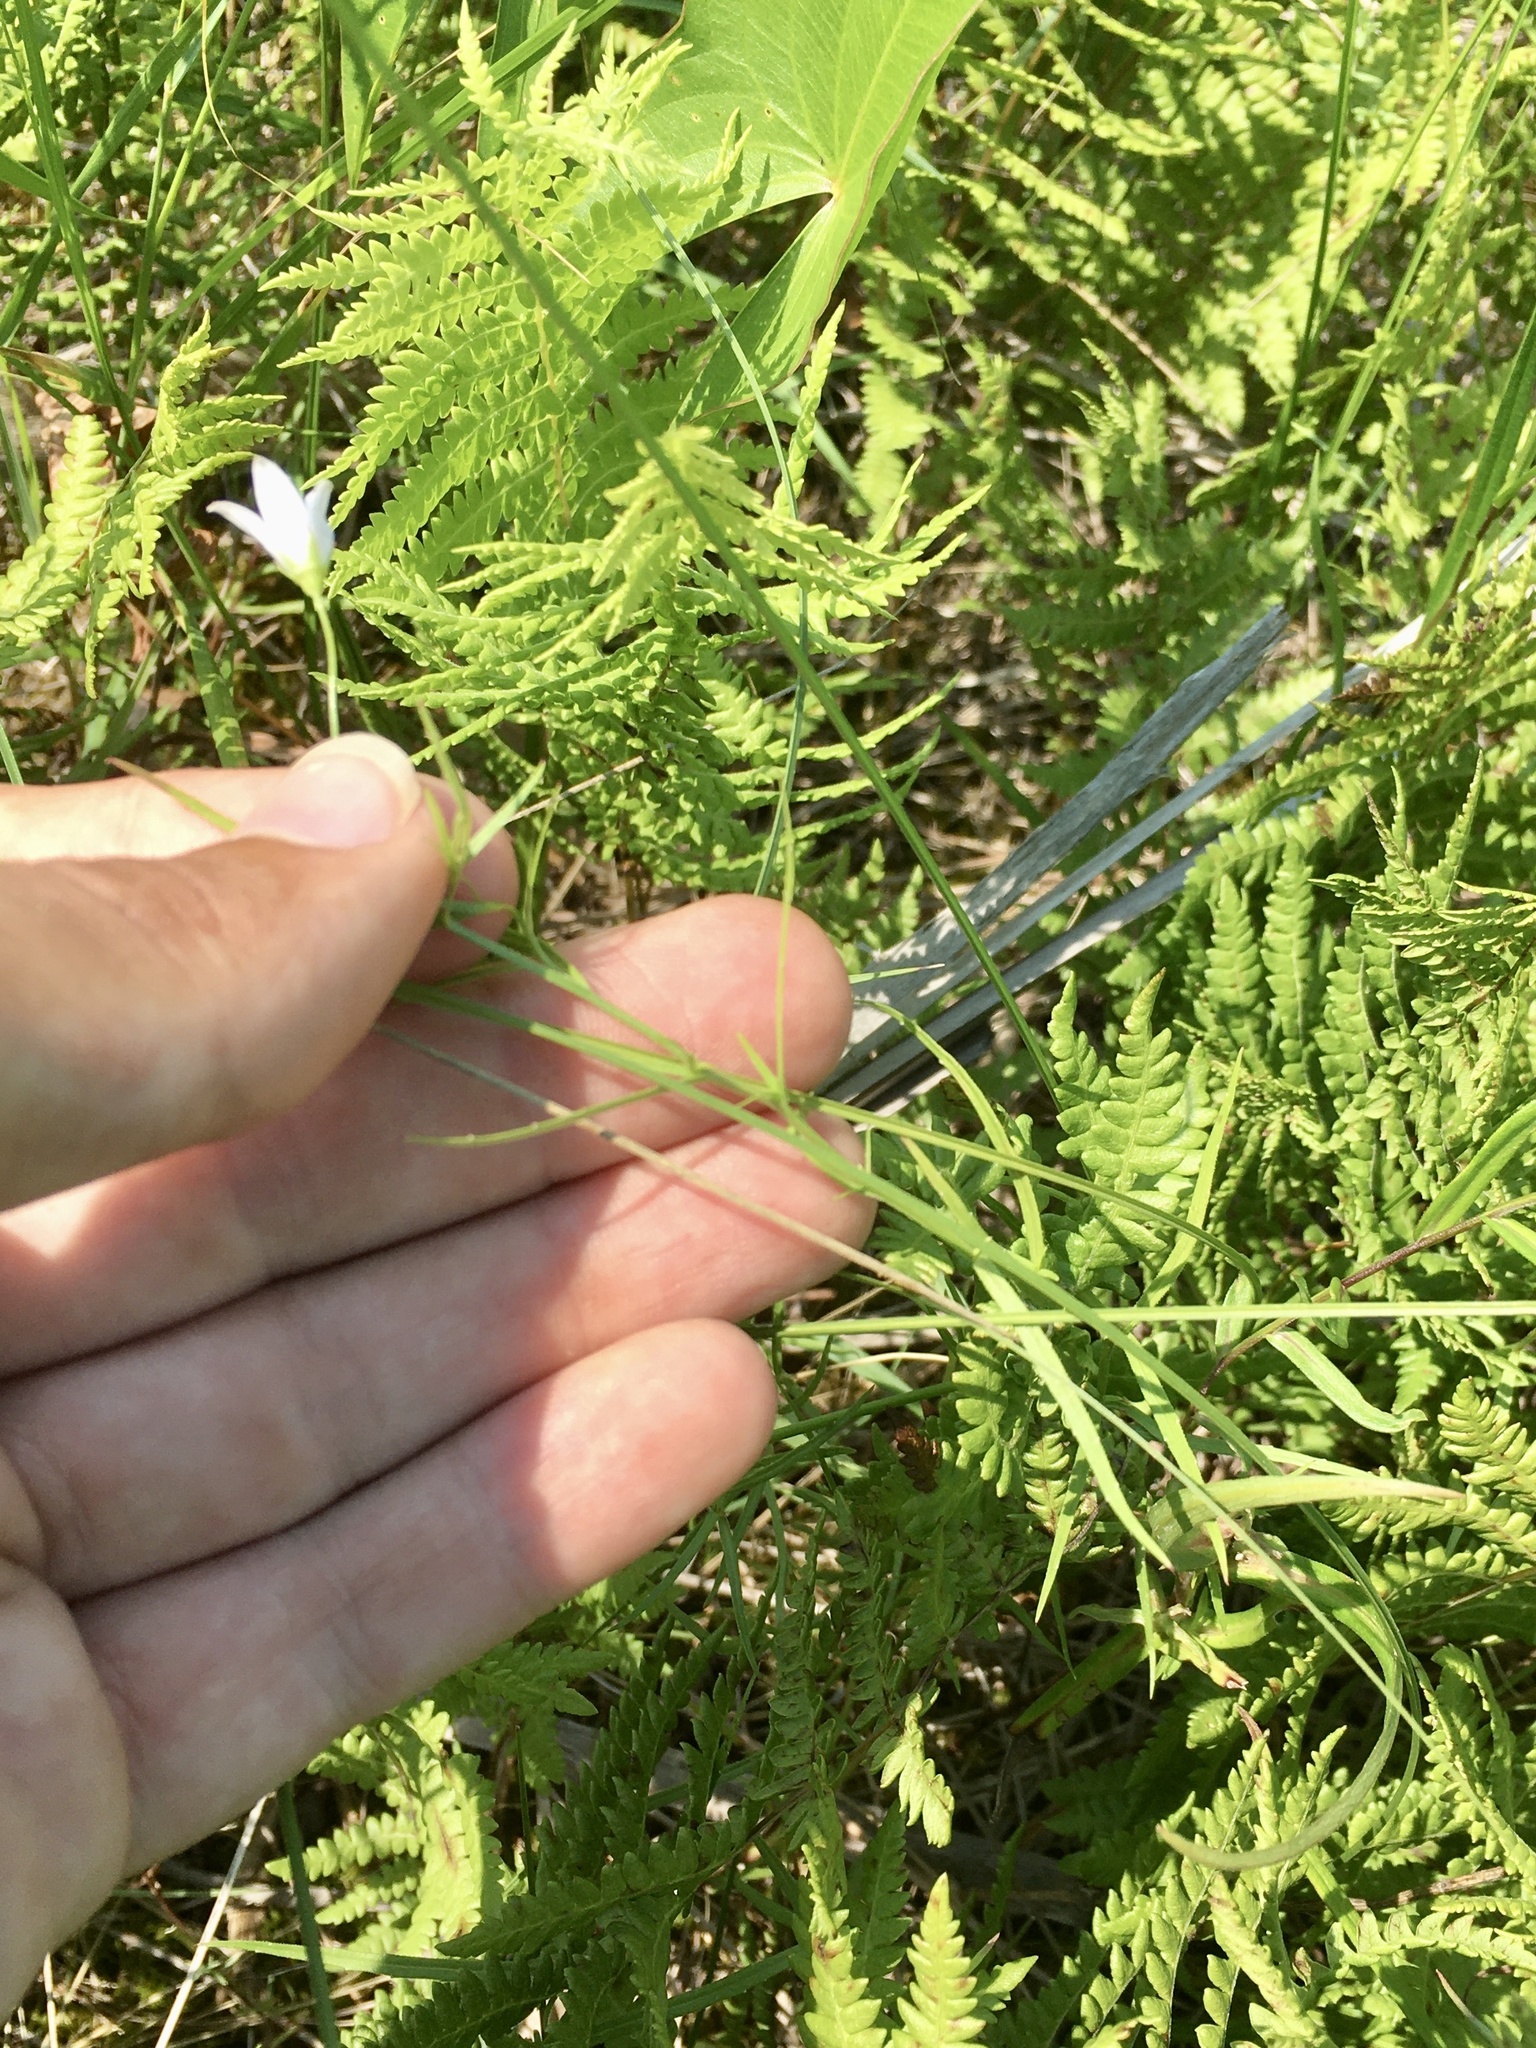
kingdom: Plantae
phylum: Tracheophyta
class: Magnoliopsida
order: Asterales
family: Campanulaceae
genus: Palustricodon
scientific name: Palustricodon aparinoides
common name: Bedstraw bellflower
